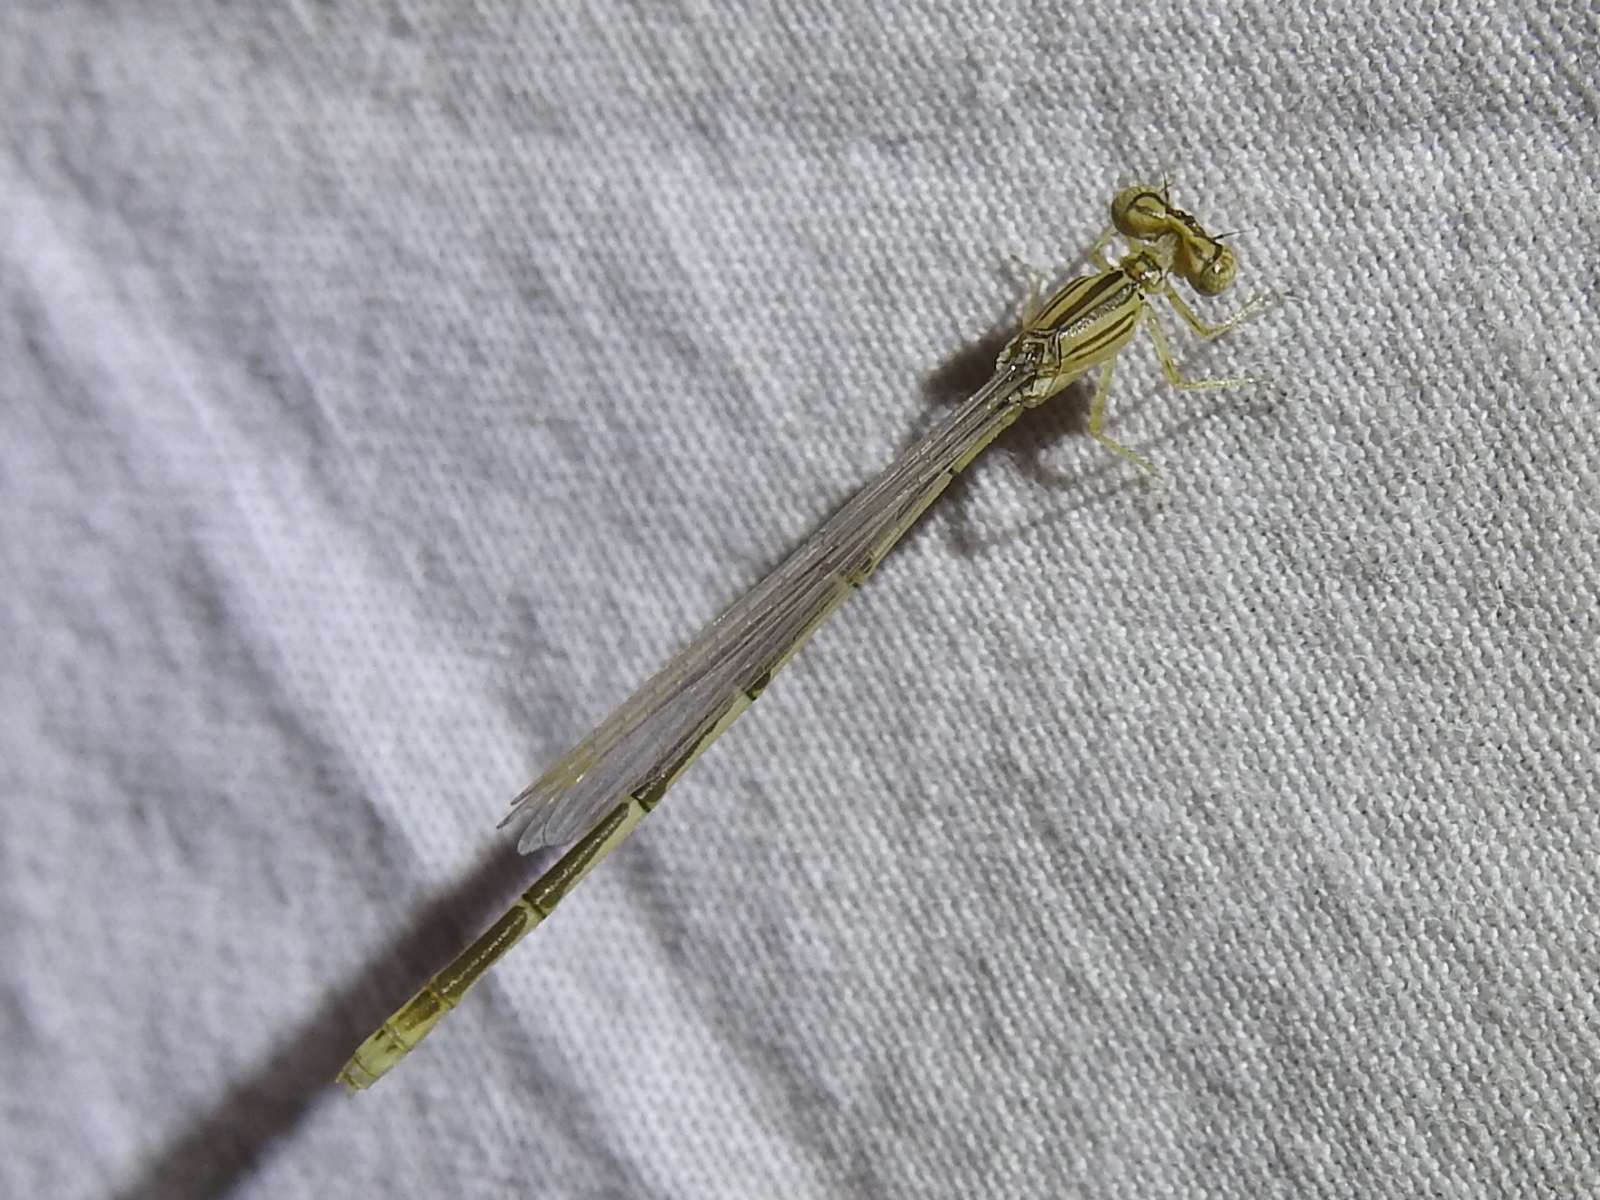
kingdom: Animalia
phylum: Arthropoda
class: Insecta
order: Odonata
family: Coenagrionidae
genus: Enallagma
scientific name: Enallagma basidens
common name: Double-striped bluet
